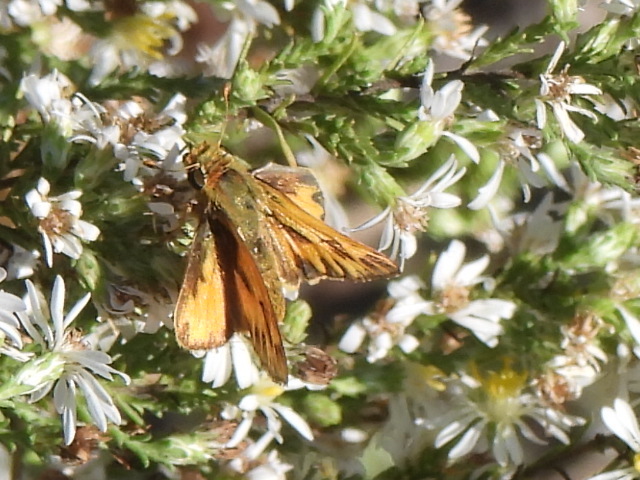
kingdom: Animalia
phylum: Arthropoda
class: Insecta
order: Lepidoptera
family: Hesperiidae
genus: Hylephila
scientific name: Hylephila phyleus
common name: Fiery skipper
